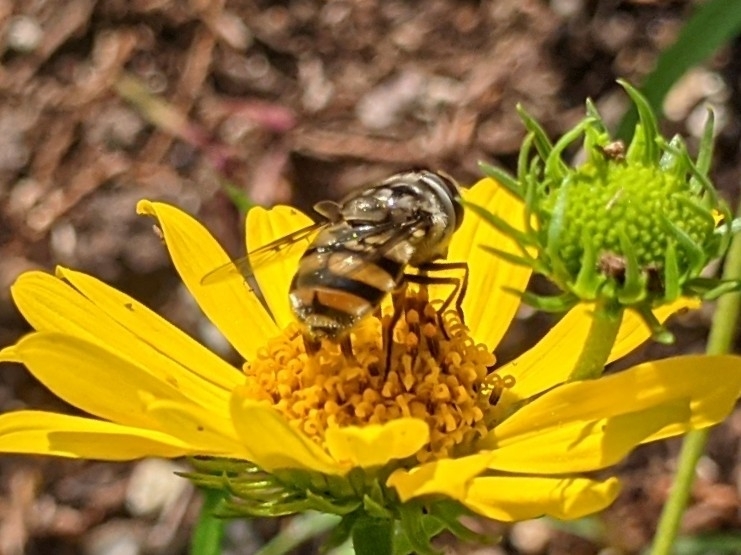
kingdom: Animalia
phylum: Arthropoda
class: Insecta
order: Diptera
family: Syrphidae
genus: Copestylum
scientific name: Copestylum avidum
